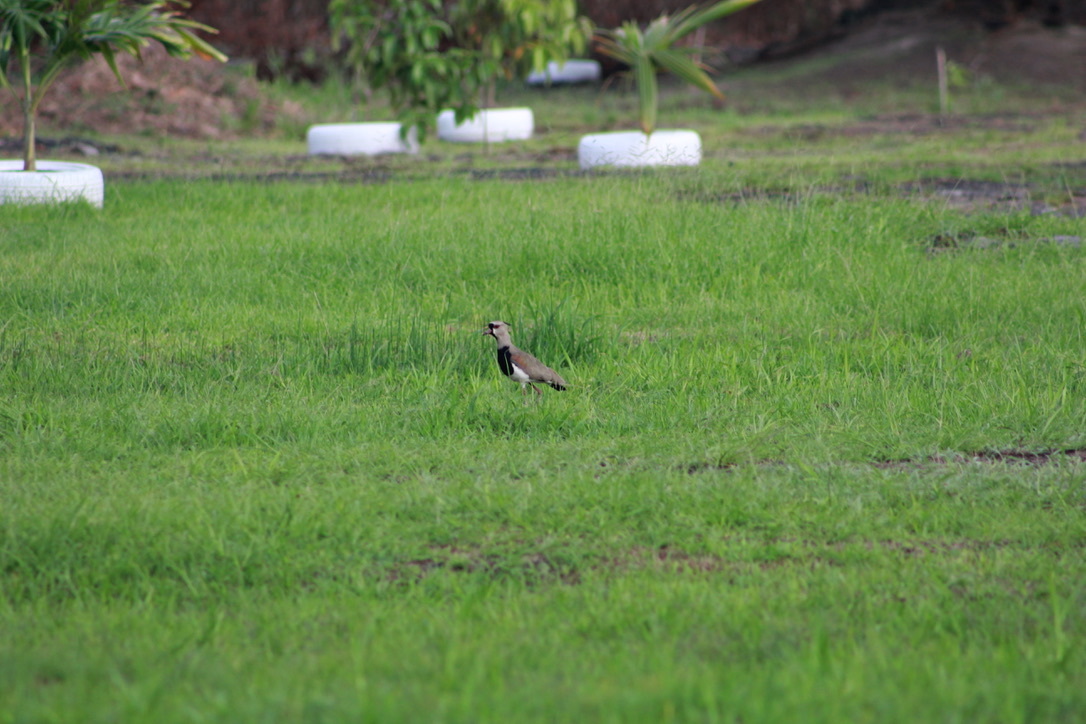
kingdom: Animalia
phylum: Chordata
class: Aves
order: Charadriiformes
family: Charadriidae
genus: Vanellus
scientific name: Vanellus chilensis
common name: Southern lapwing
